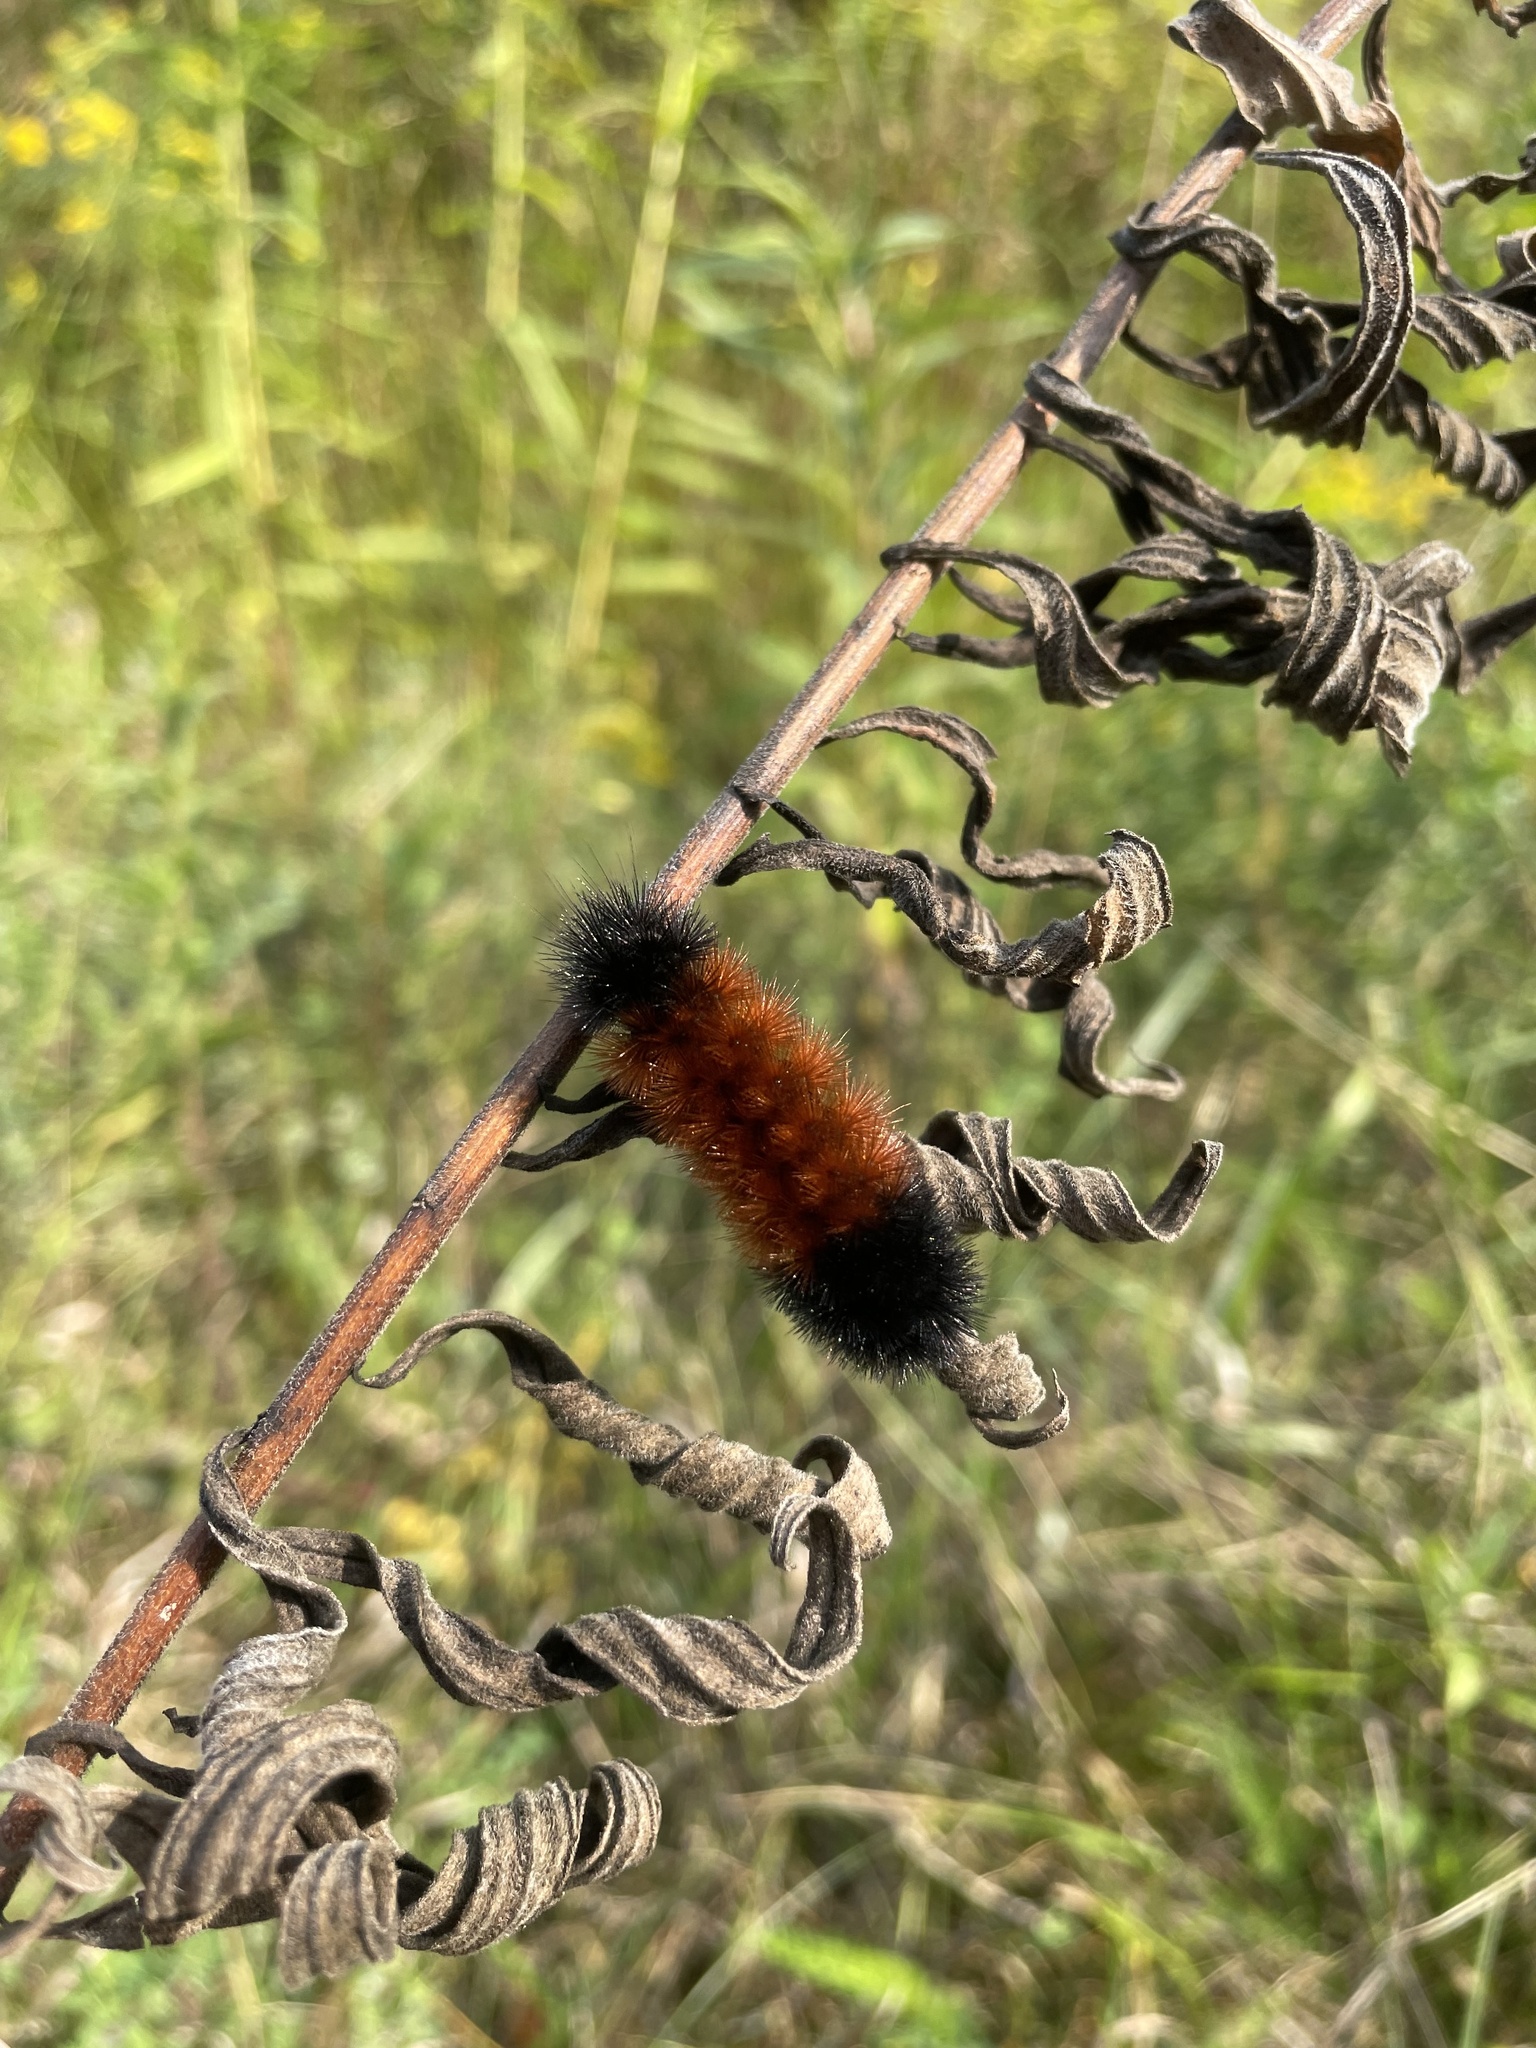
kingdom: Animalia
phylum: Arthropoda
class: Insecta
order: Lepidoptera
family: Erebidae
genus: Pyrrharctia
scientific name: Pyrrharctia isabella
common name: Isabella tiger moth
